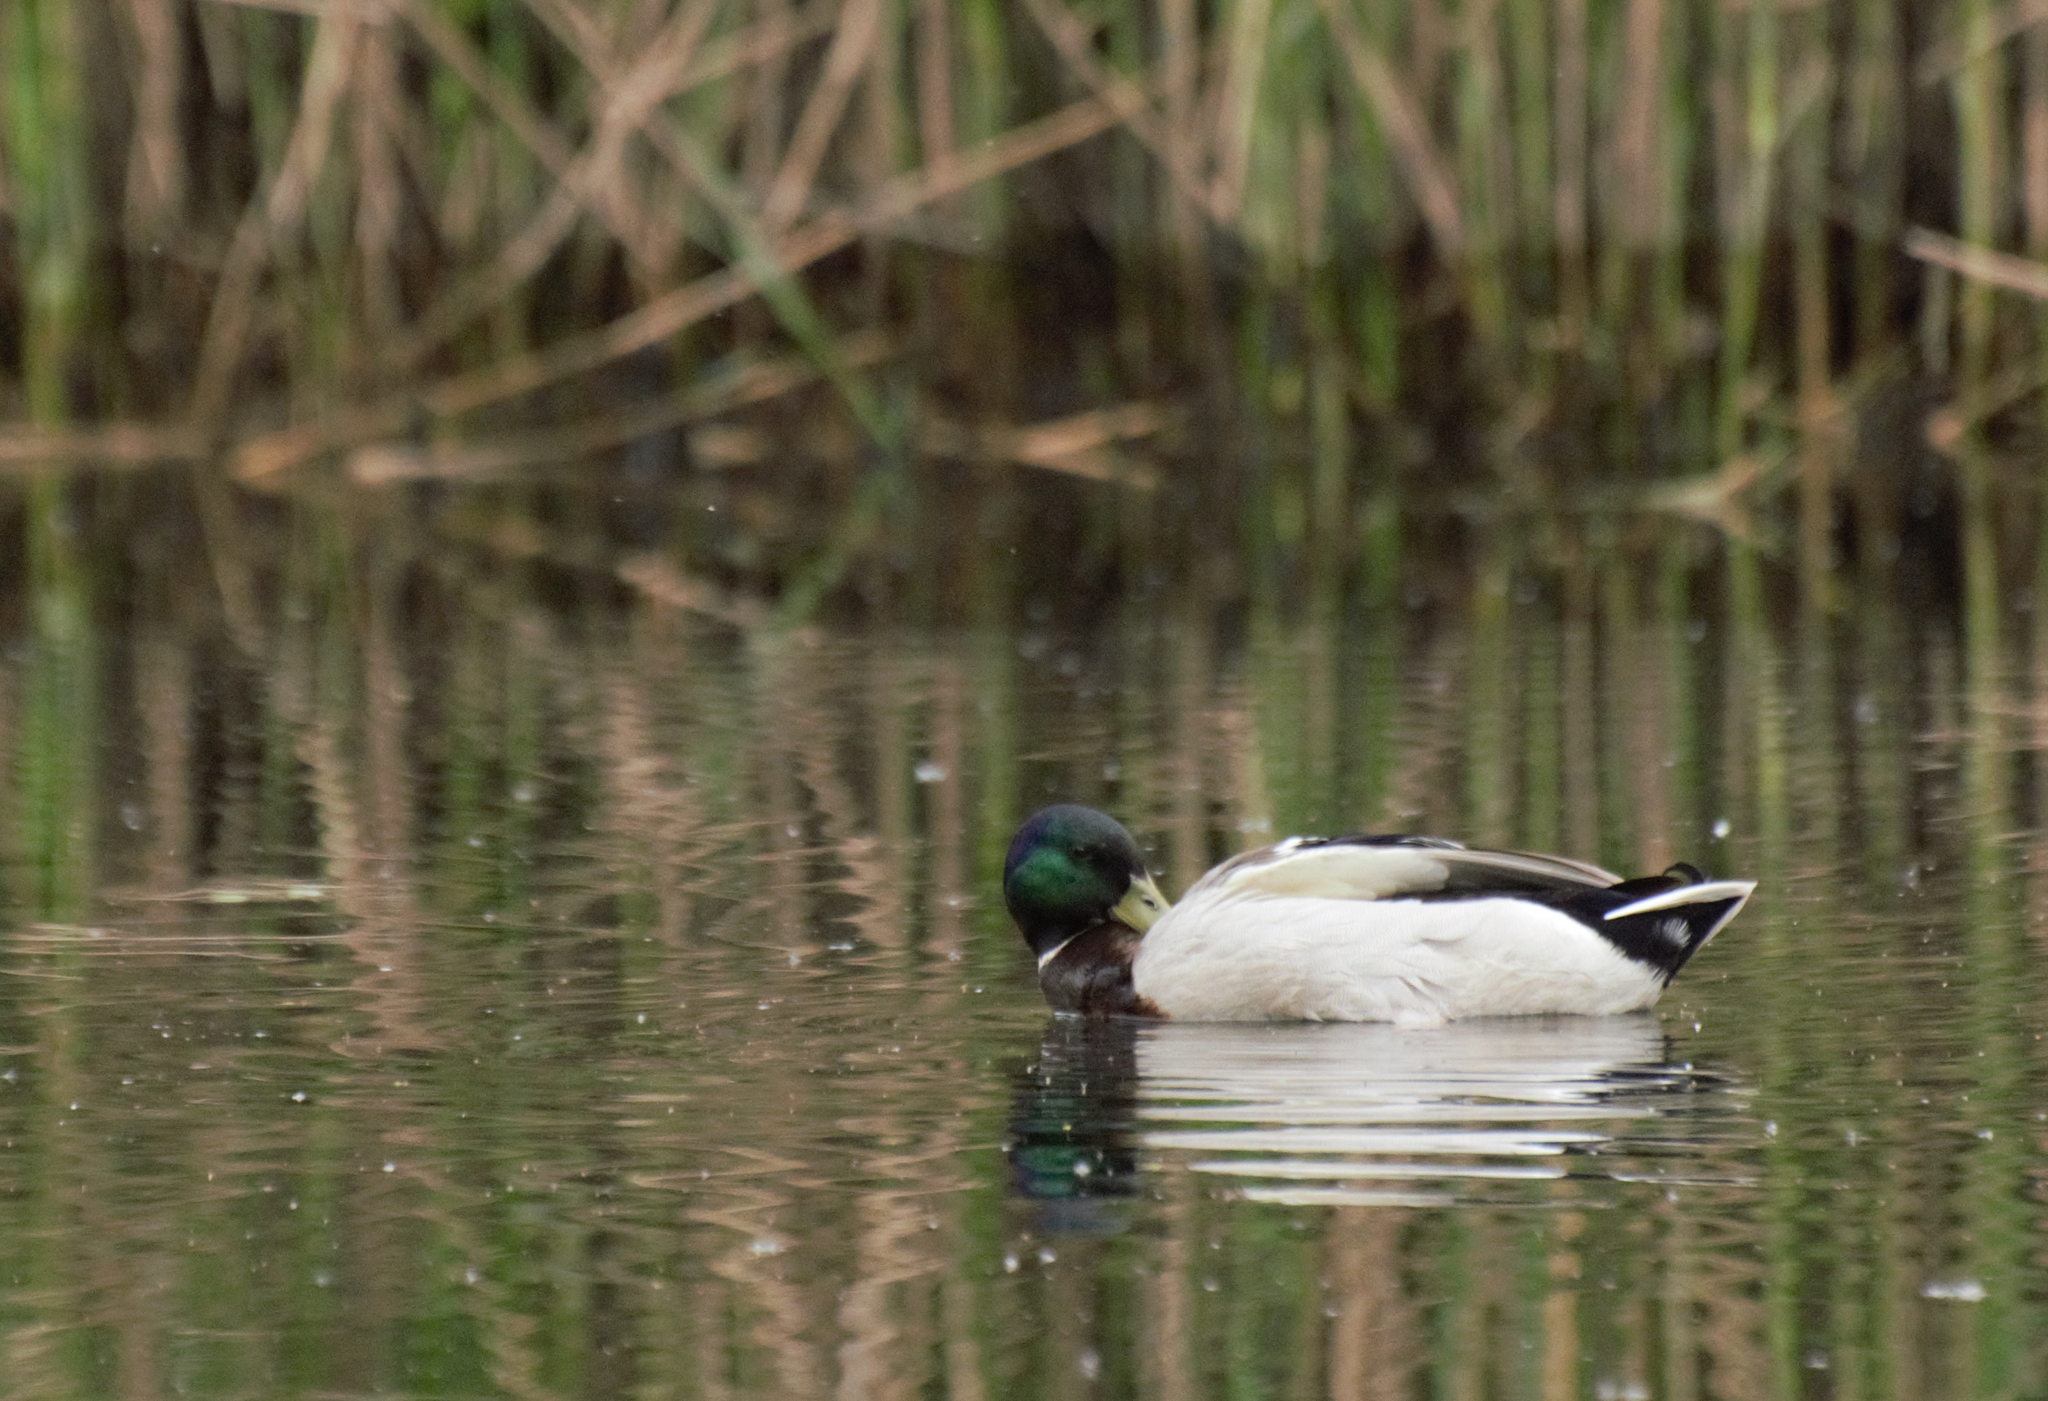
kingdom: Animalia
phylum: Chordata
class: Aves
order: Anseriformes
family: Anatidae
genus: Anas
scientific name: Anas platyrhynchos
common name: Mallard
